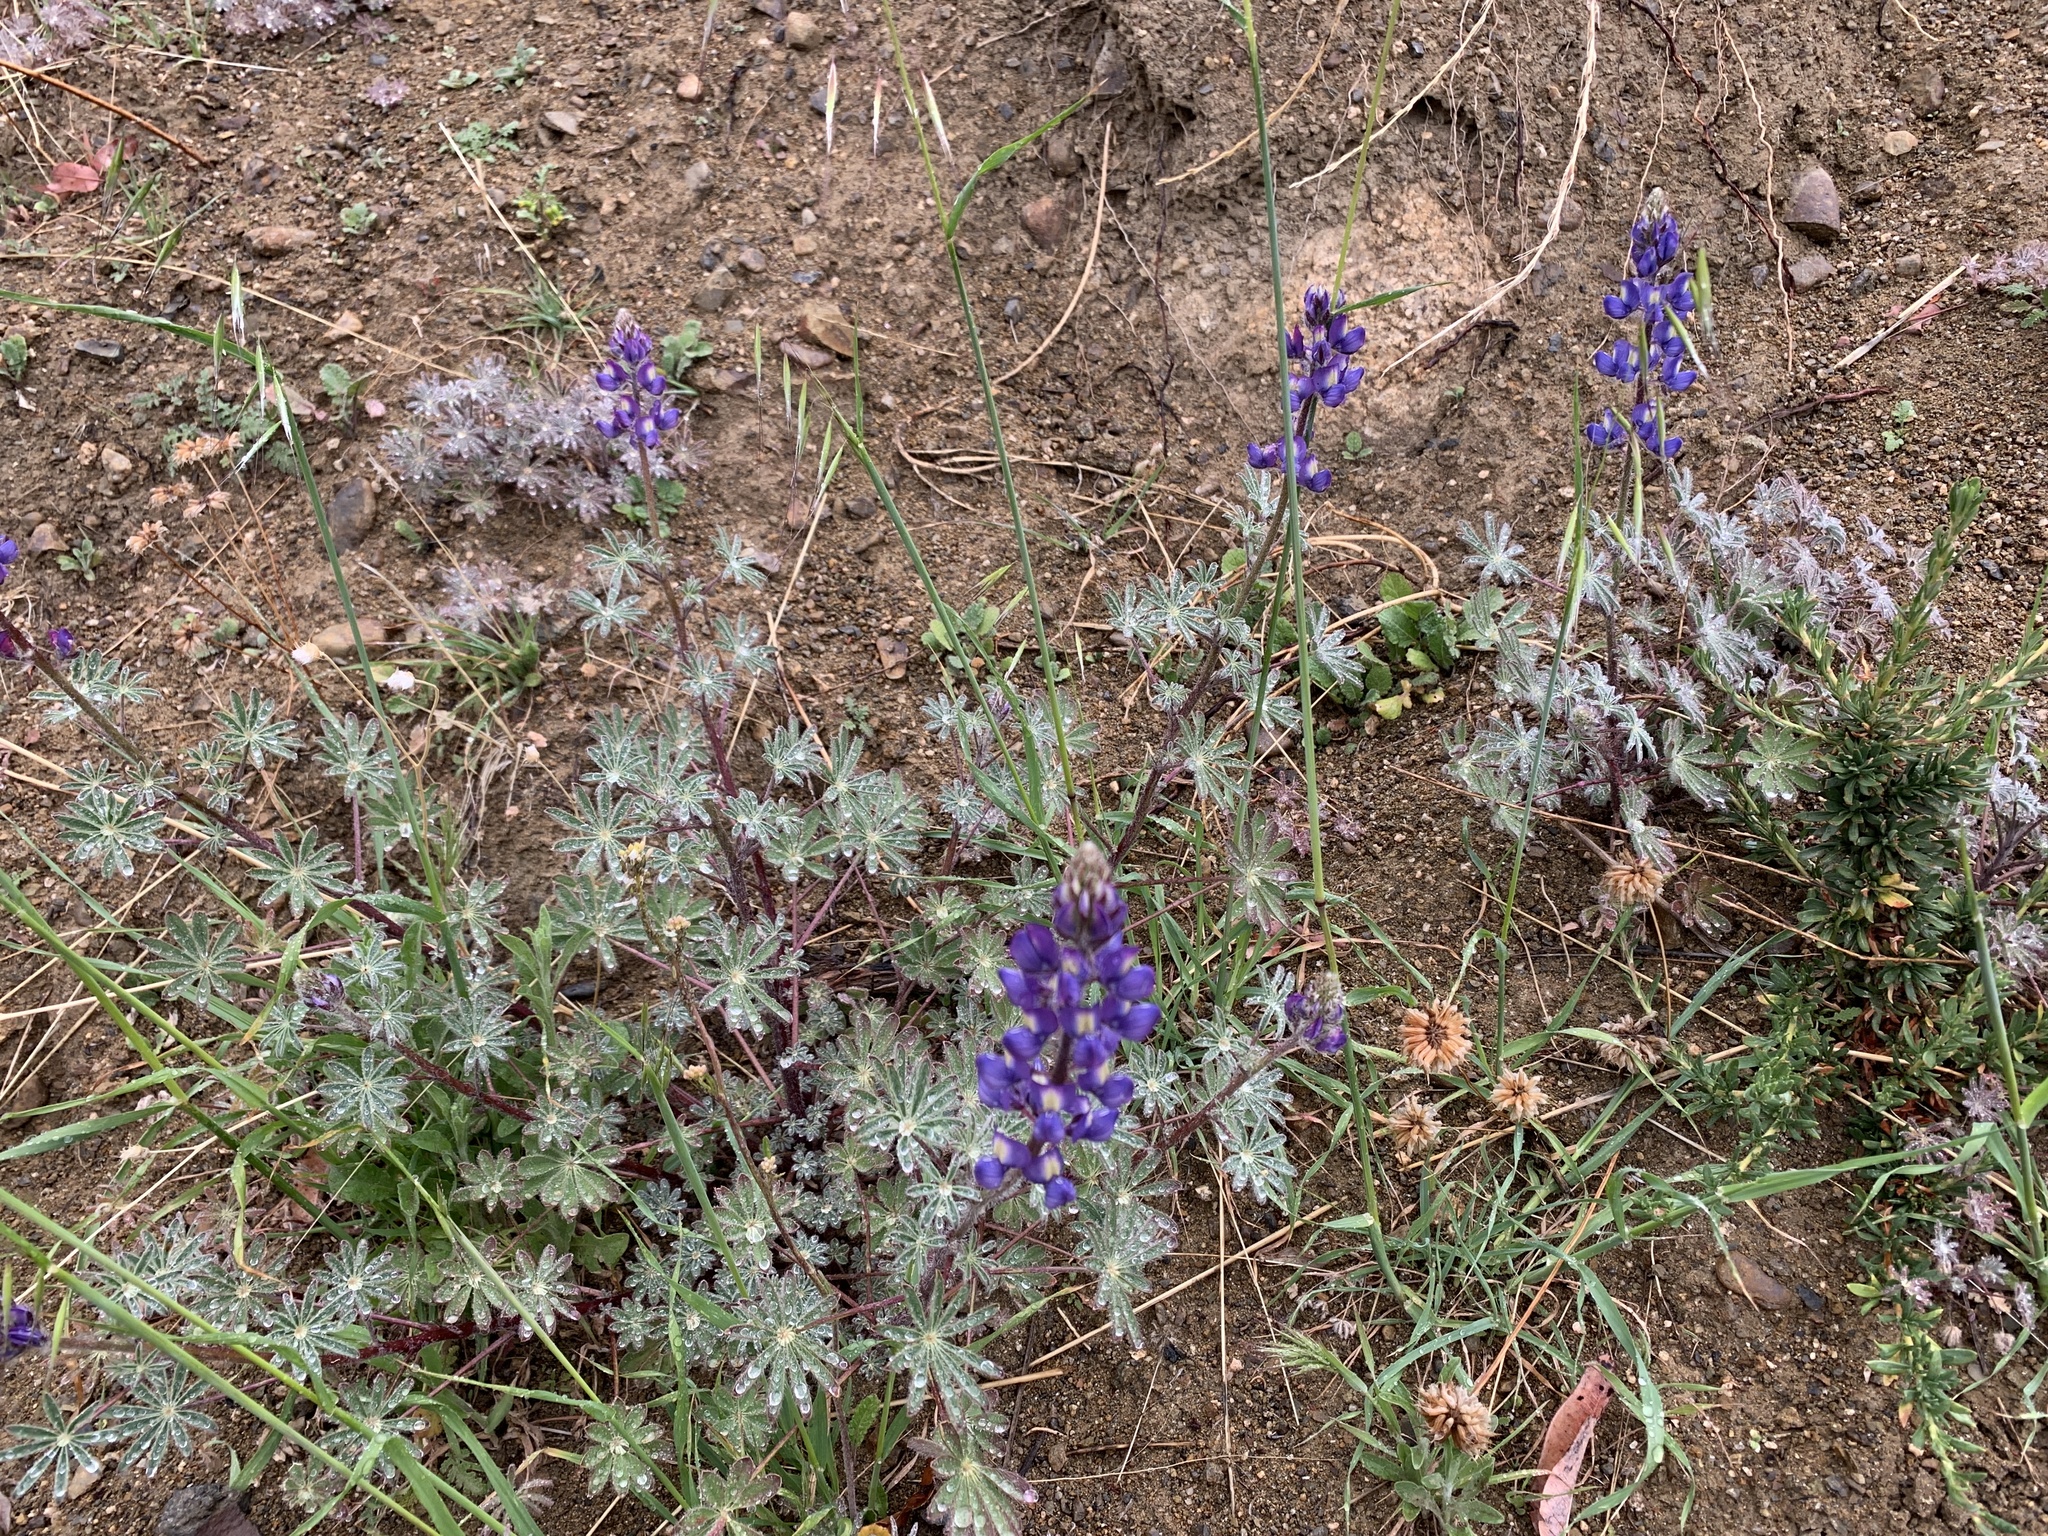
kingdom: Plantae
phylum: Tracheophyta
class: Magnoliopsida
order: Fabales
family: Fabaceae
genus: Lupinus
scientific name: Lupinus sparsiflorus
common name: Coulter's lupine
